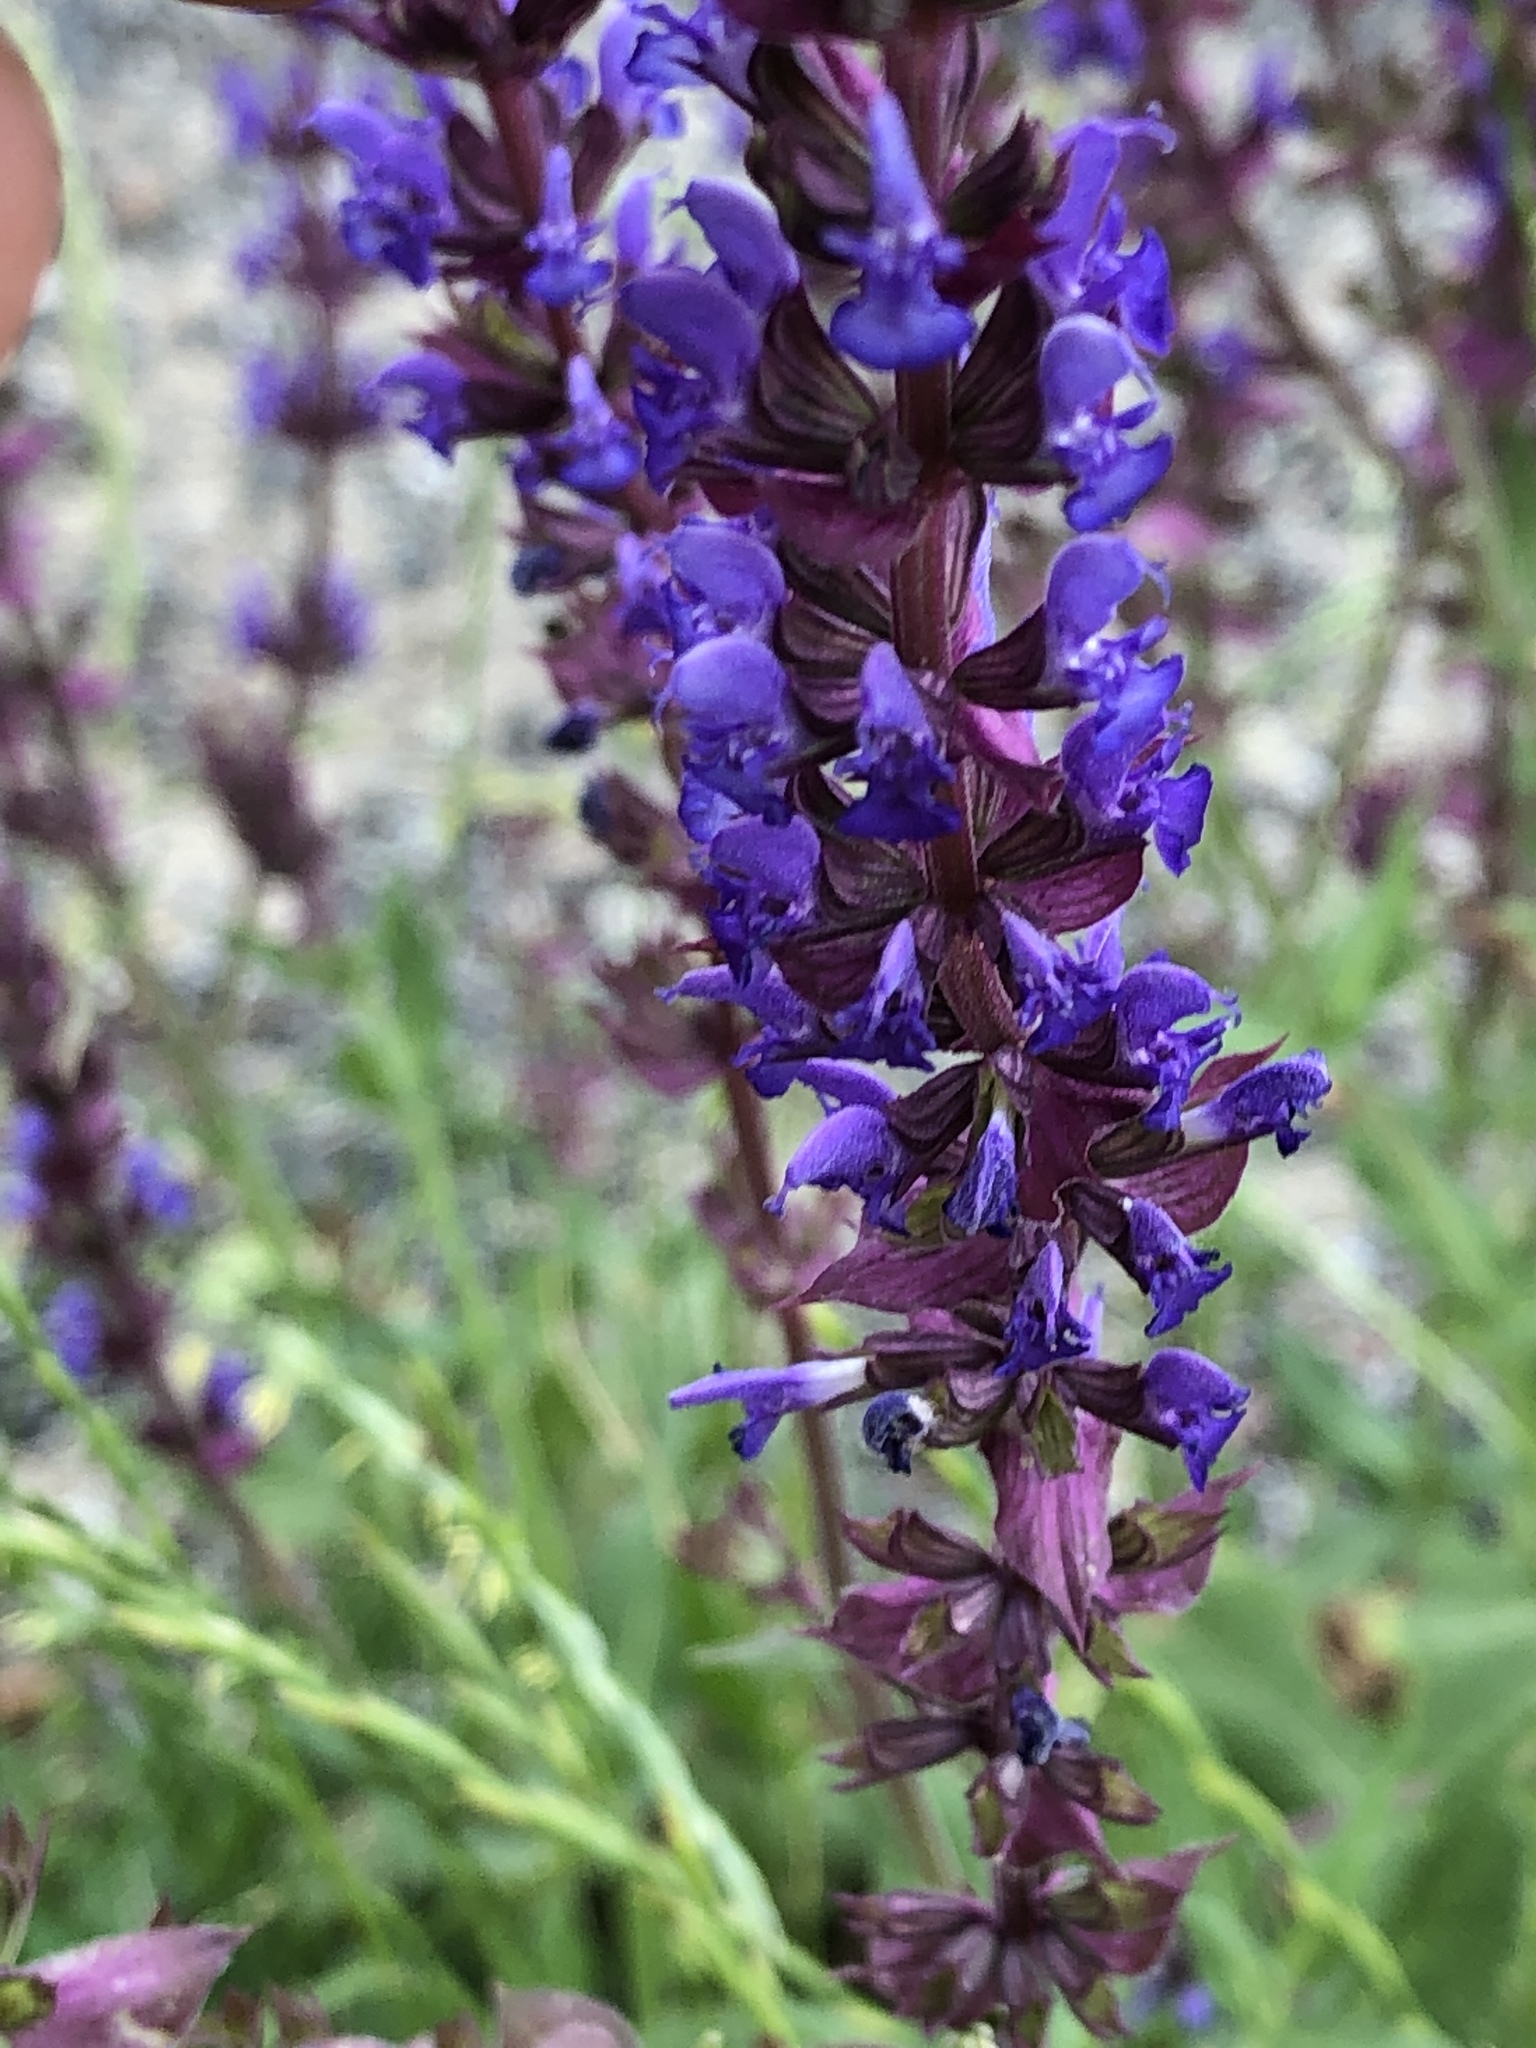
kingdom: Plantae
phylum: Tracheophyta
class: Magnoliopsida
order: Lamiales
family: Lamiaceae
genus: Salvia
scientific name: Salvia nemorosa
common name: Balkan clary
